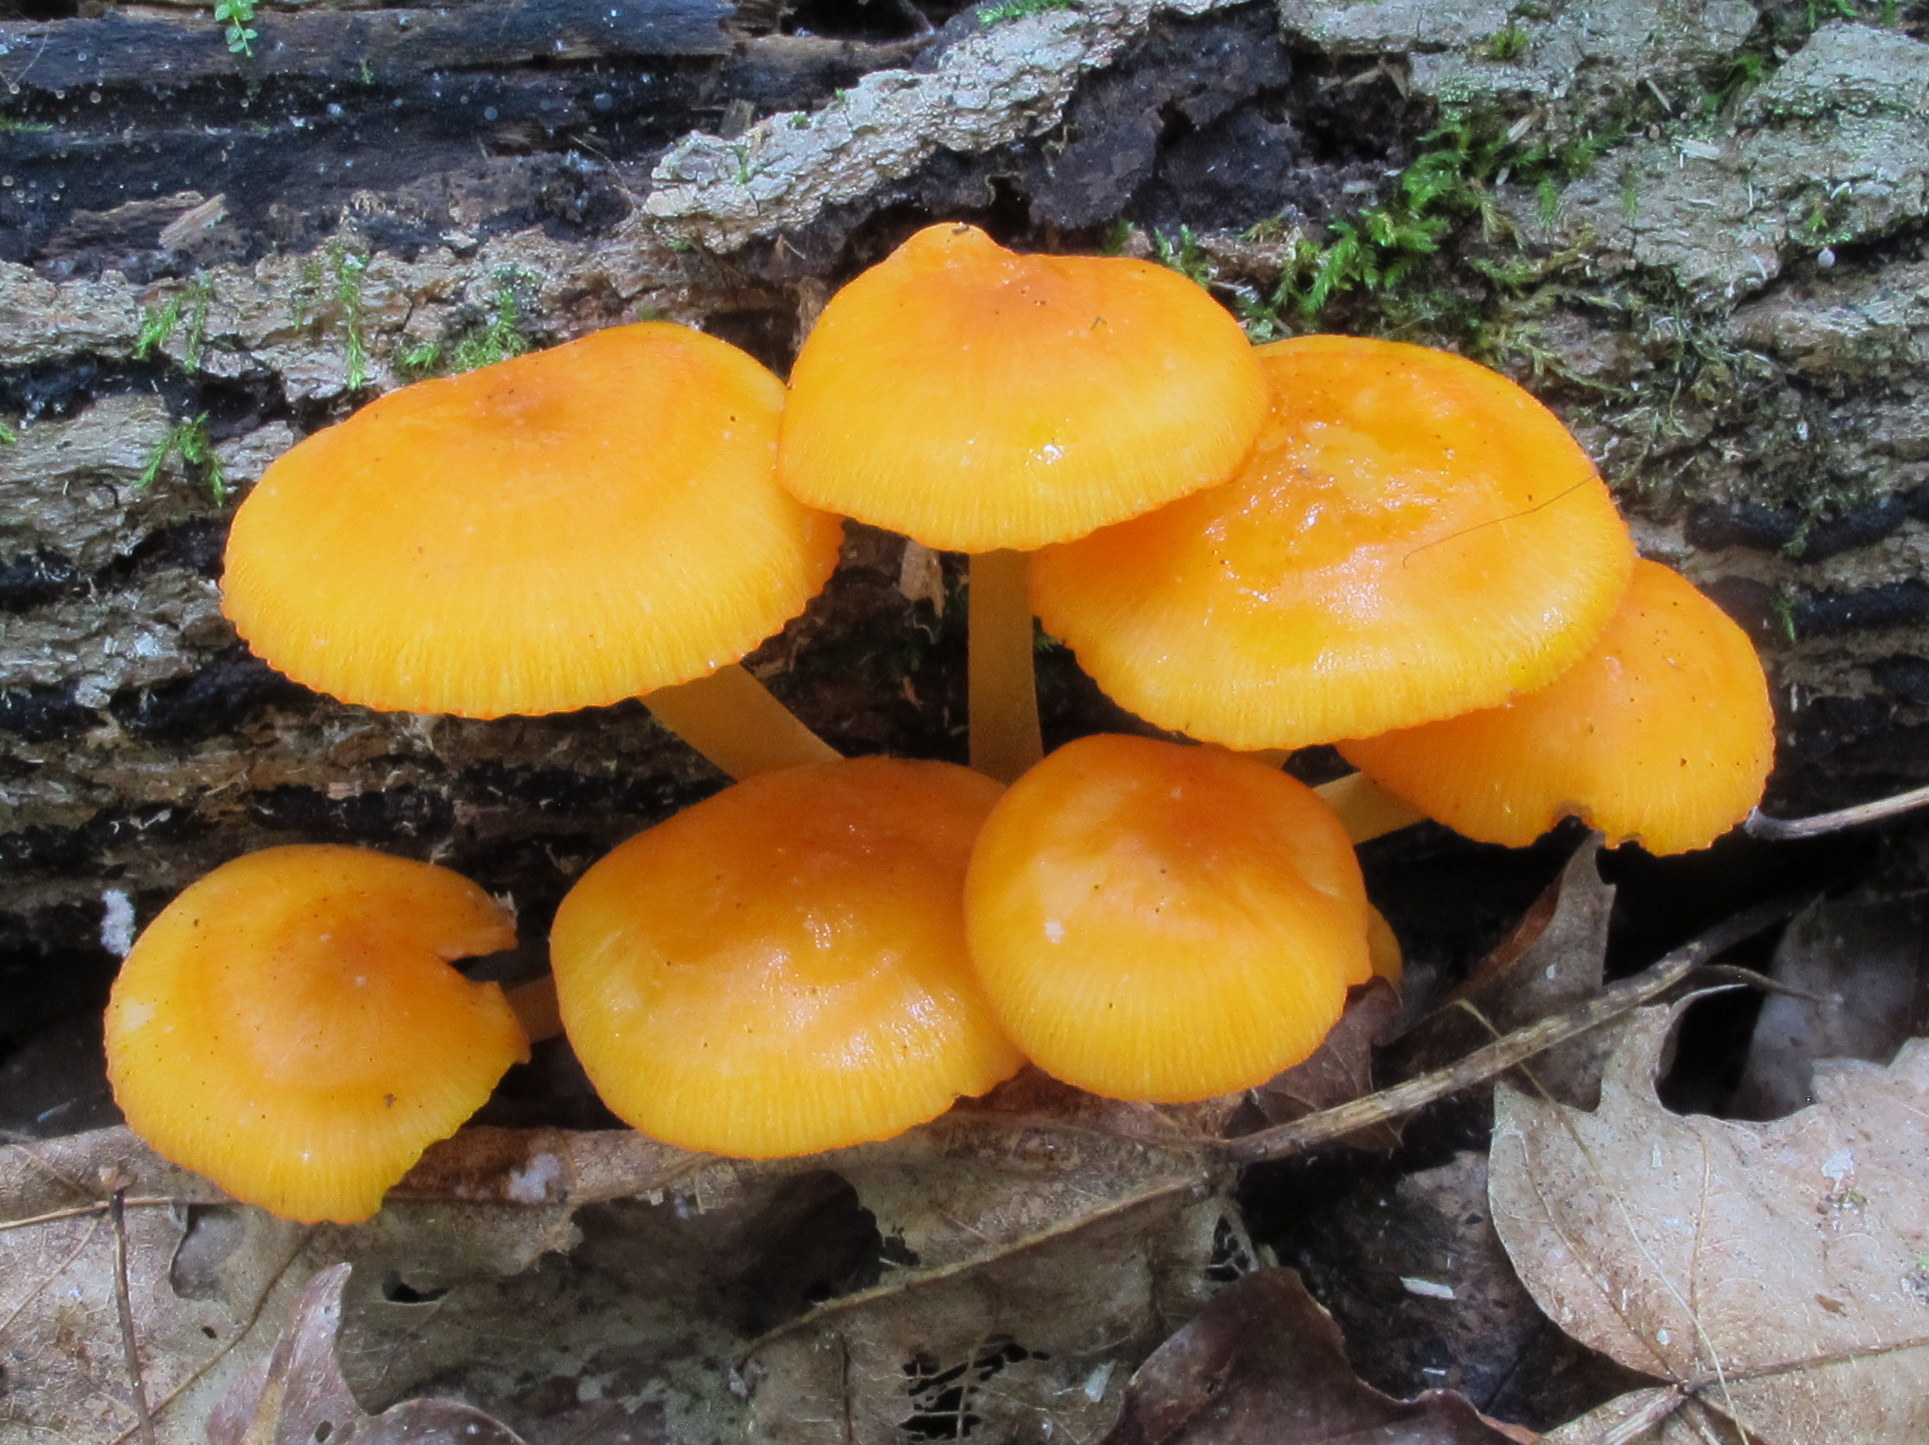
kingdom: Fungi
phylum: Basidiomycota
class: Agaricomycetes
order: Agaricales
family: Mycenaceae
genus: Mycena
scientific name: Mycena leaiana
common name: Orange mycena
